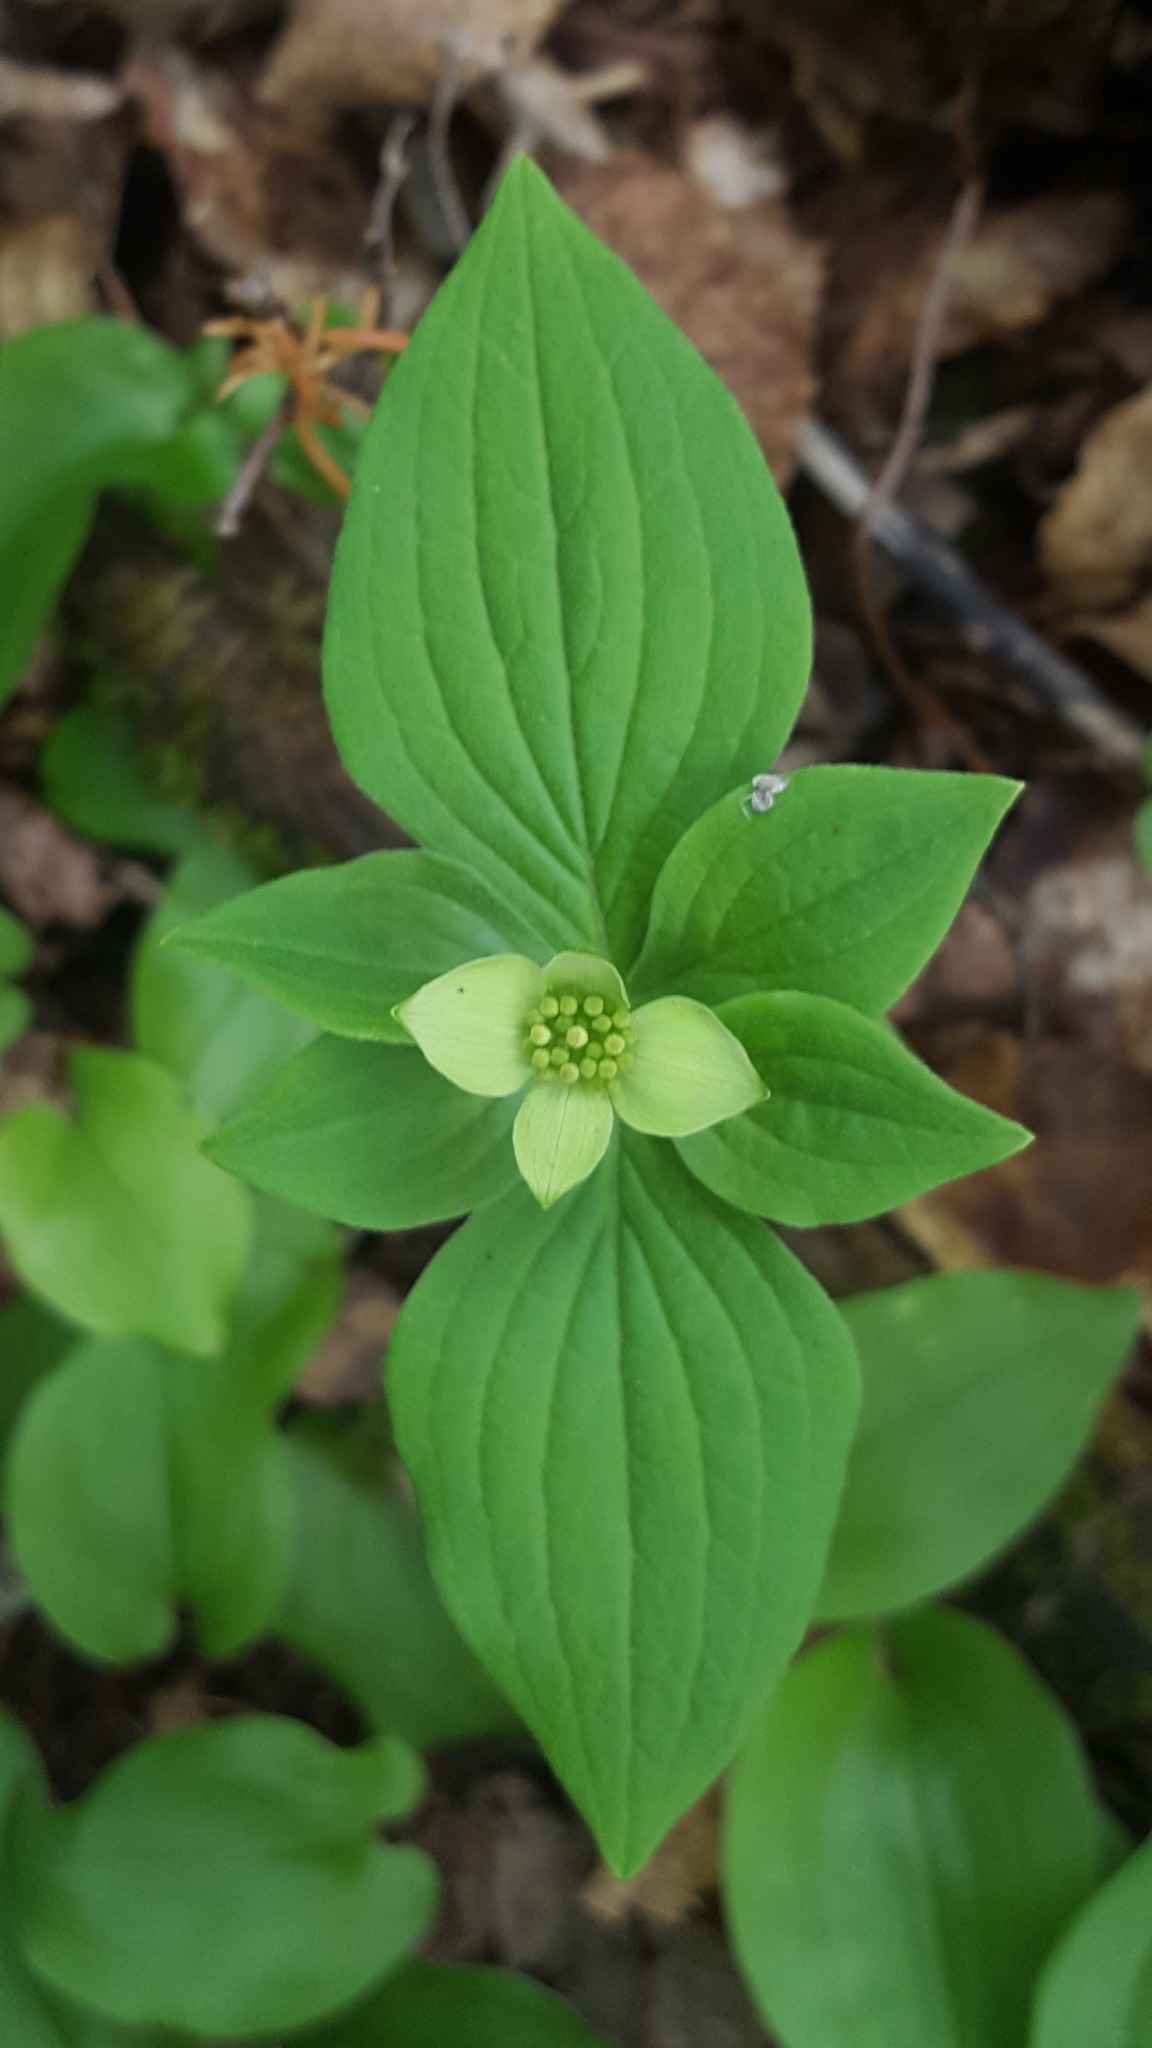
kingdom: Plantae
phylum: Tracheophyta
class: Magnoliopsida
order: Cornales
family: Cornaceae
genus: Cornus
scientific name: Cornus canadensis
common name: Creeping dogwood
